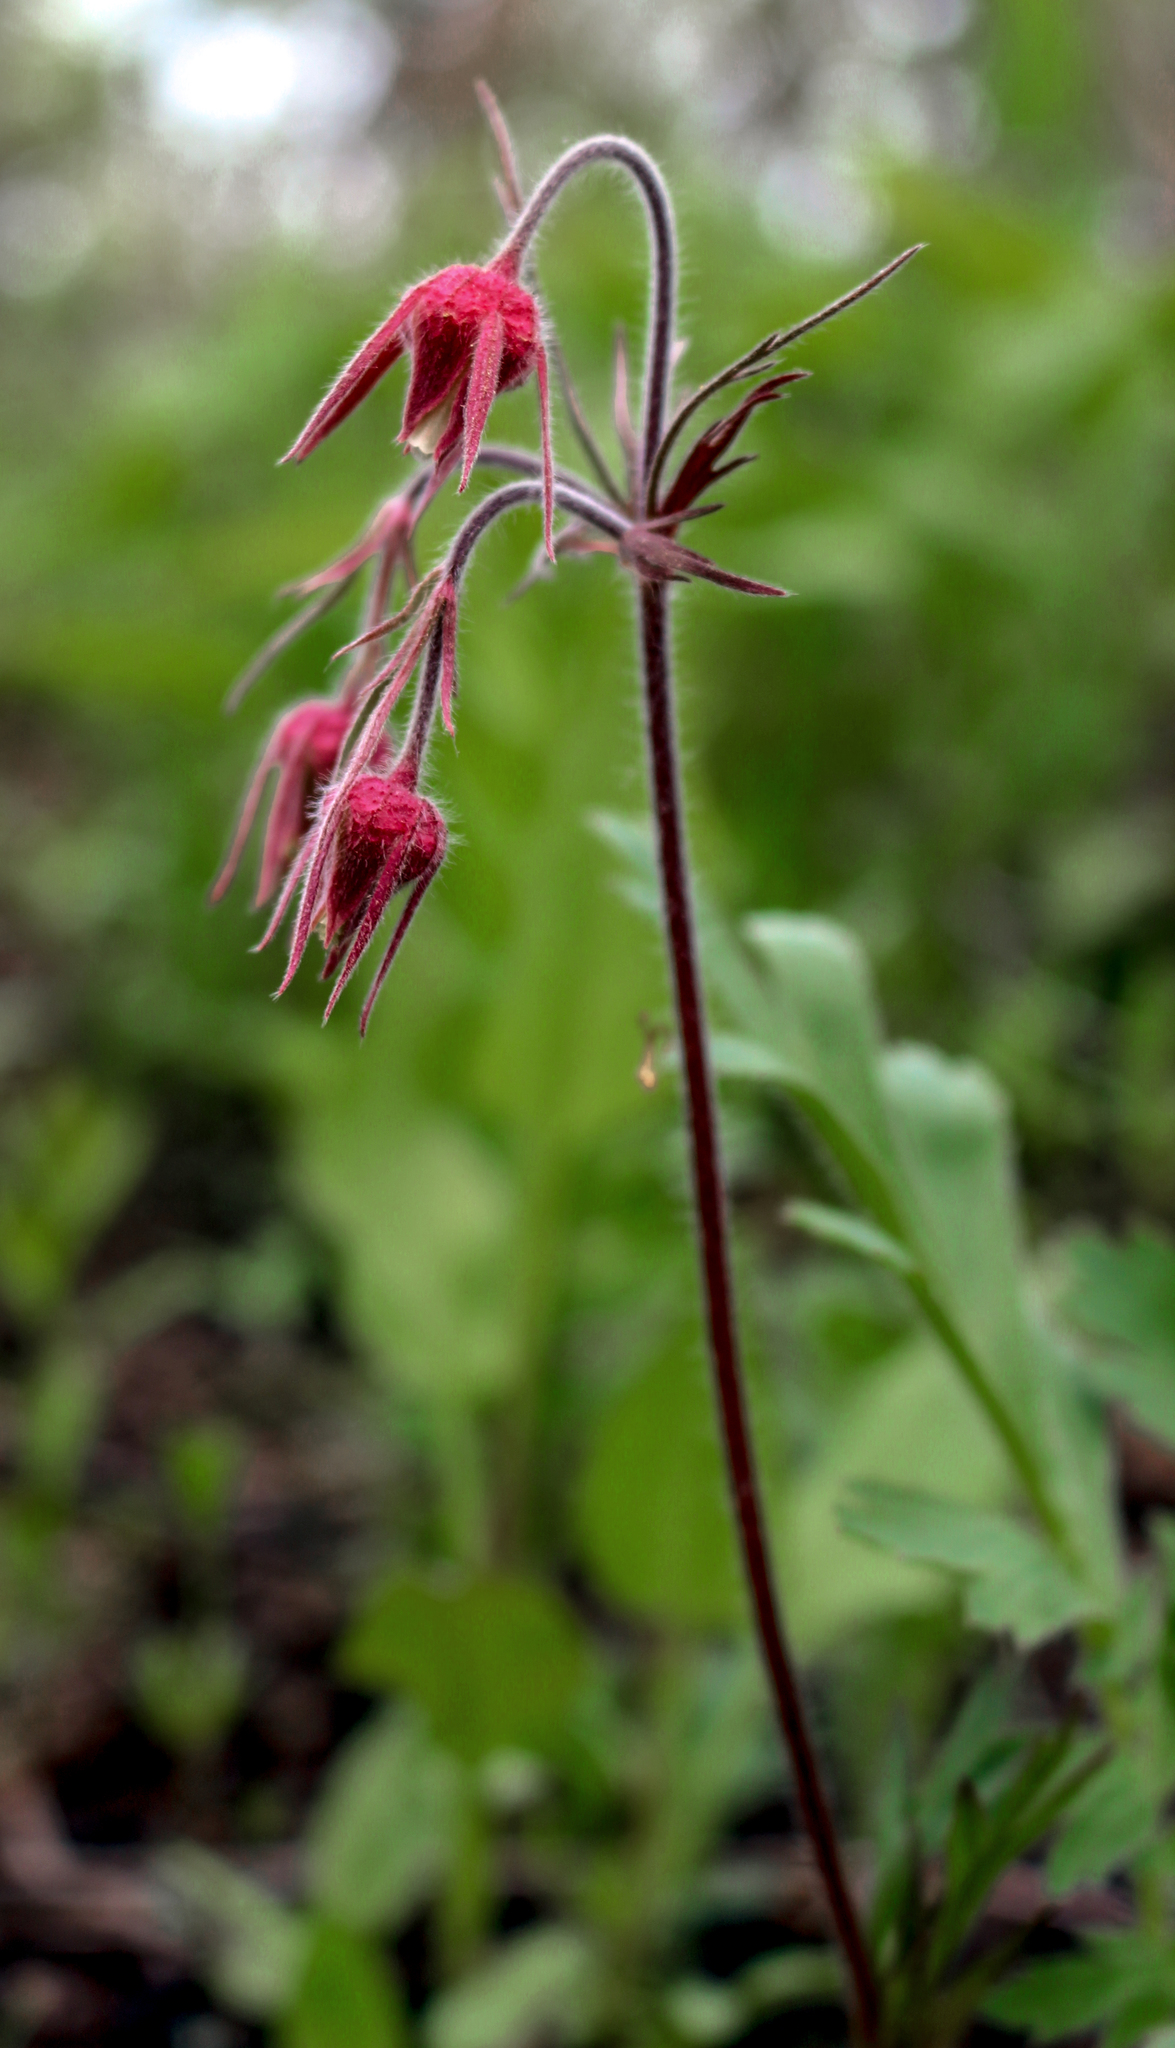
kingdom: Plantae
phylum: Tracheophyta
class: Magnoliopsida
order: Rosales
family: Rosaceae
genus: Geum
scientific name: Geum triflorum
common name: Old man's whiskers
